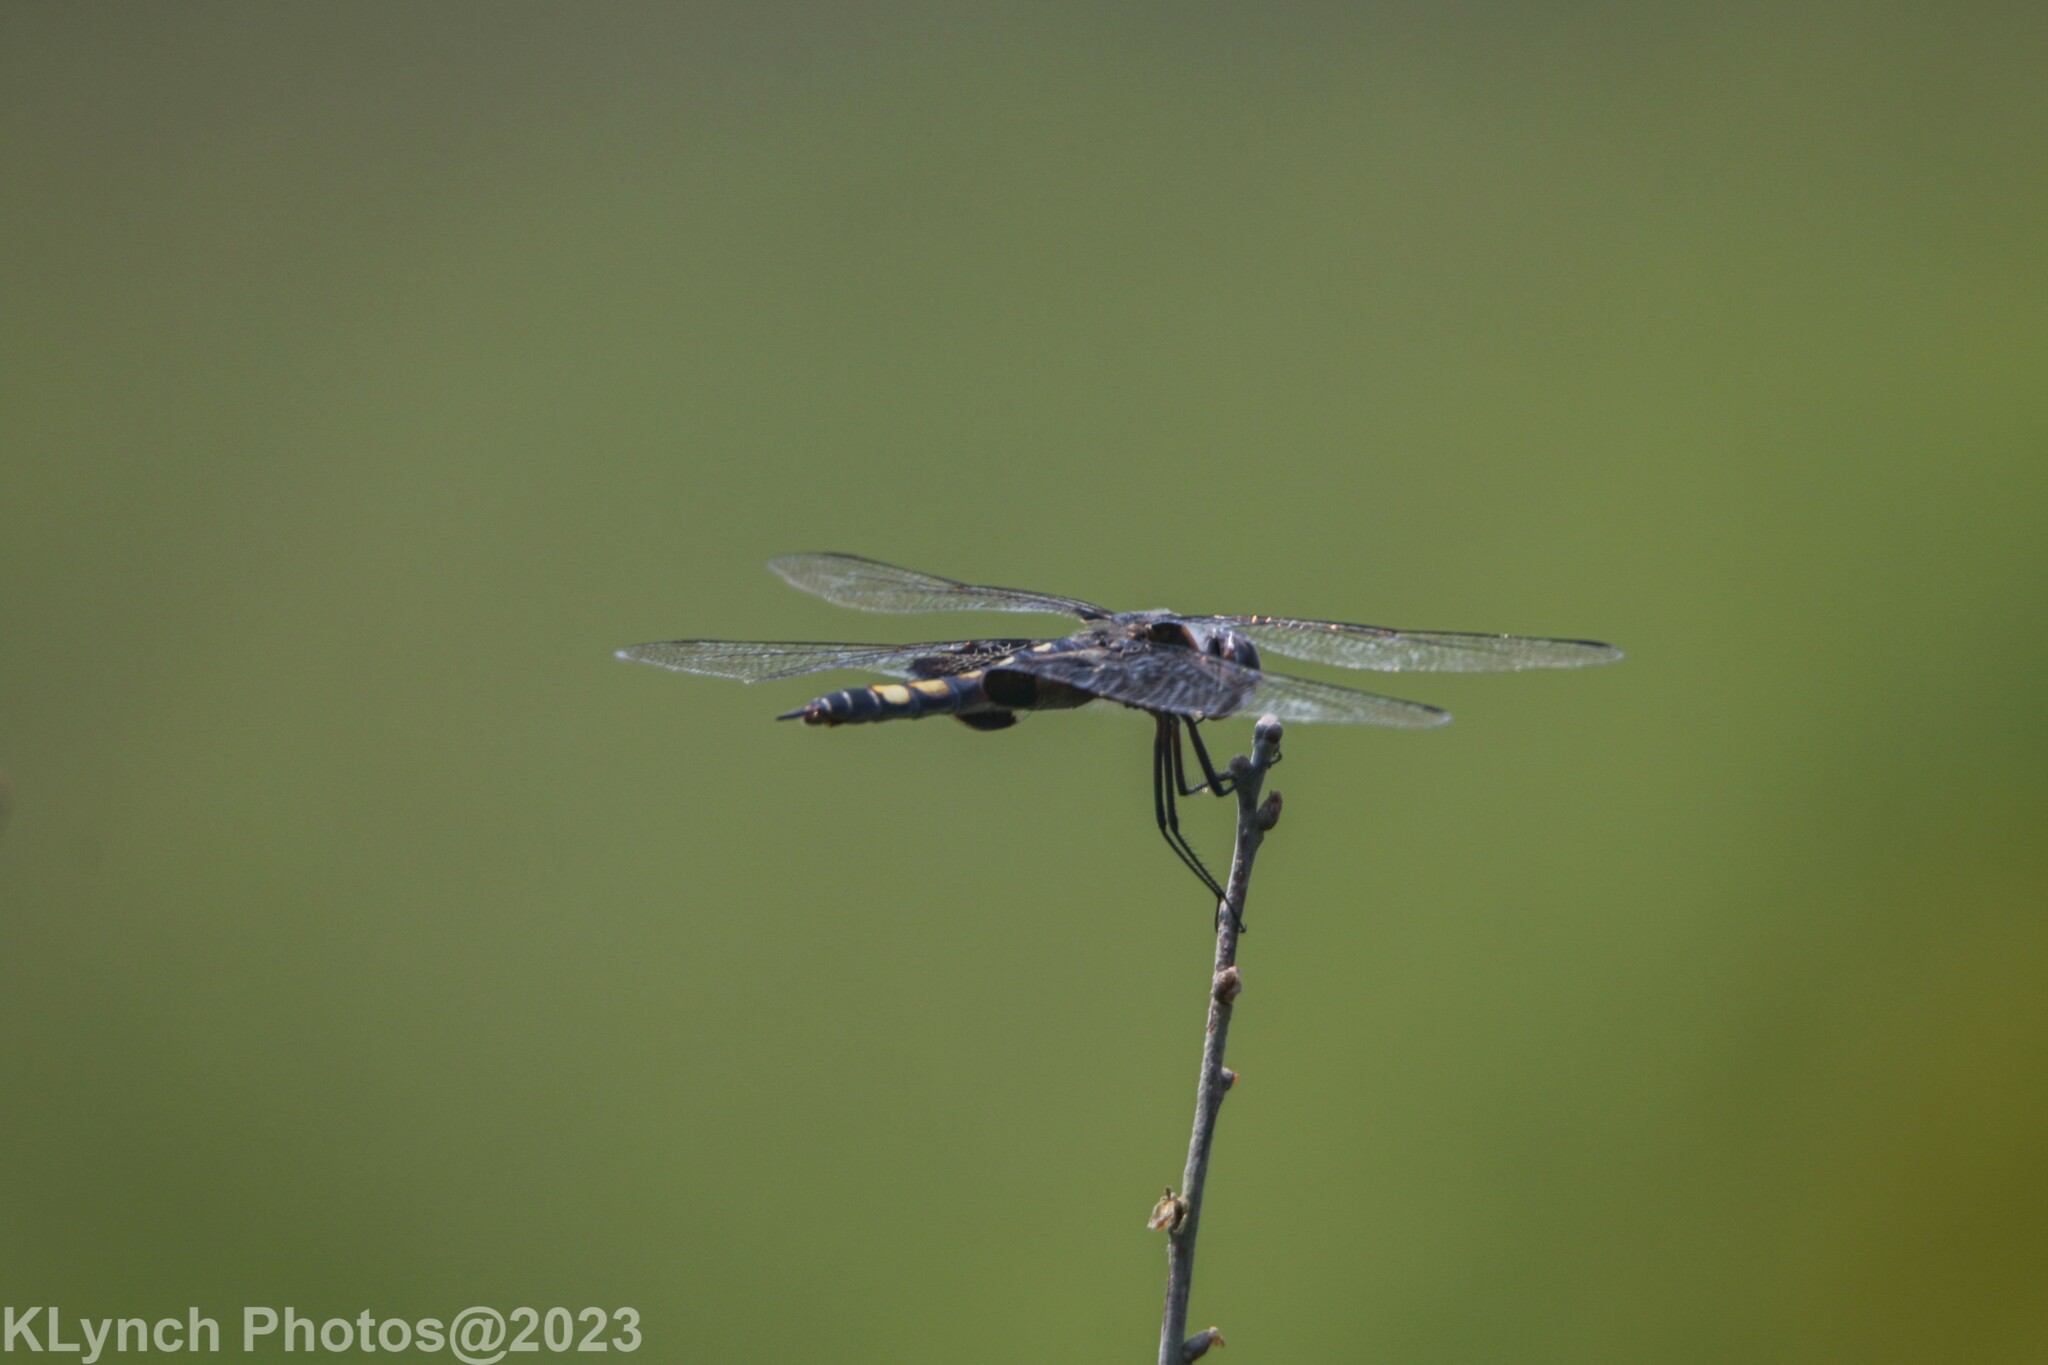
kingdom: Animalia
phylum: Arthropoda
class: Insecta
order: Odonata
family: Libellulidae
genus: Tramea
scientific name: Tramea lacerata
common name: Black saddlebags
